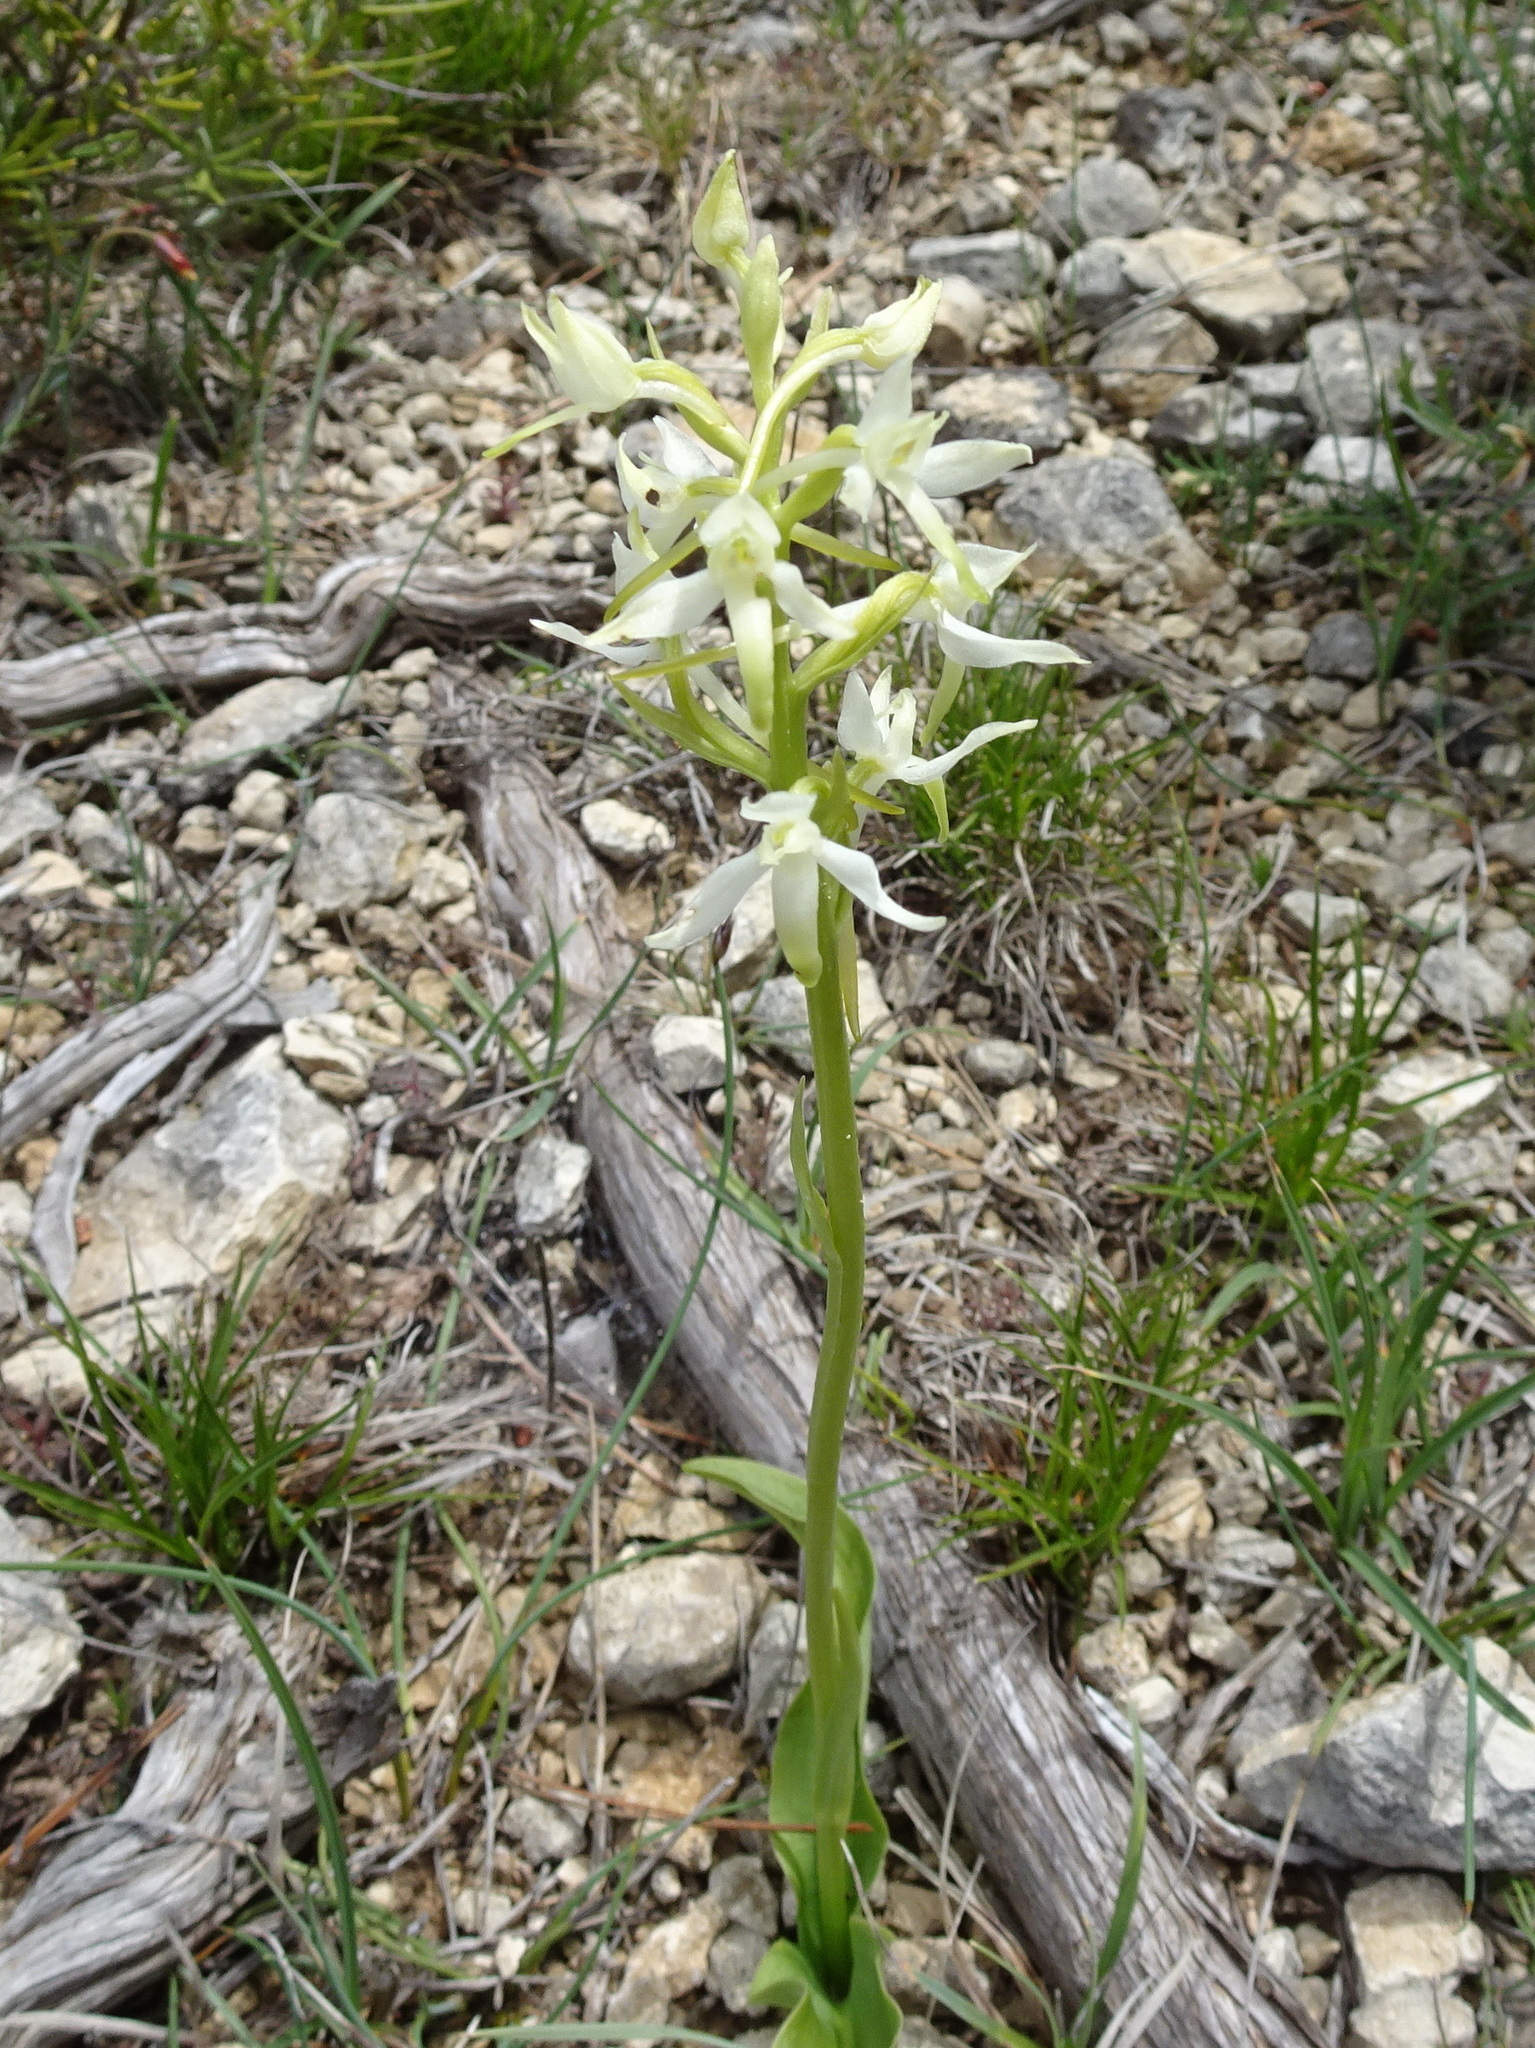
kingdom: Plantae
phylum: Tracheophyta
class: Liliopsida
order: Asparagales
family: Orchidaceae
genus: Platanthera
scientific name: Platanthera bifolia
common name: Lesser butterfly-orchid
